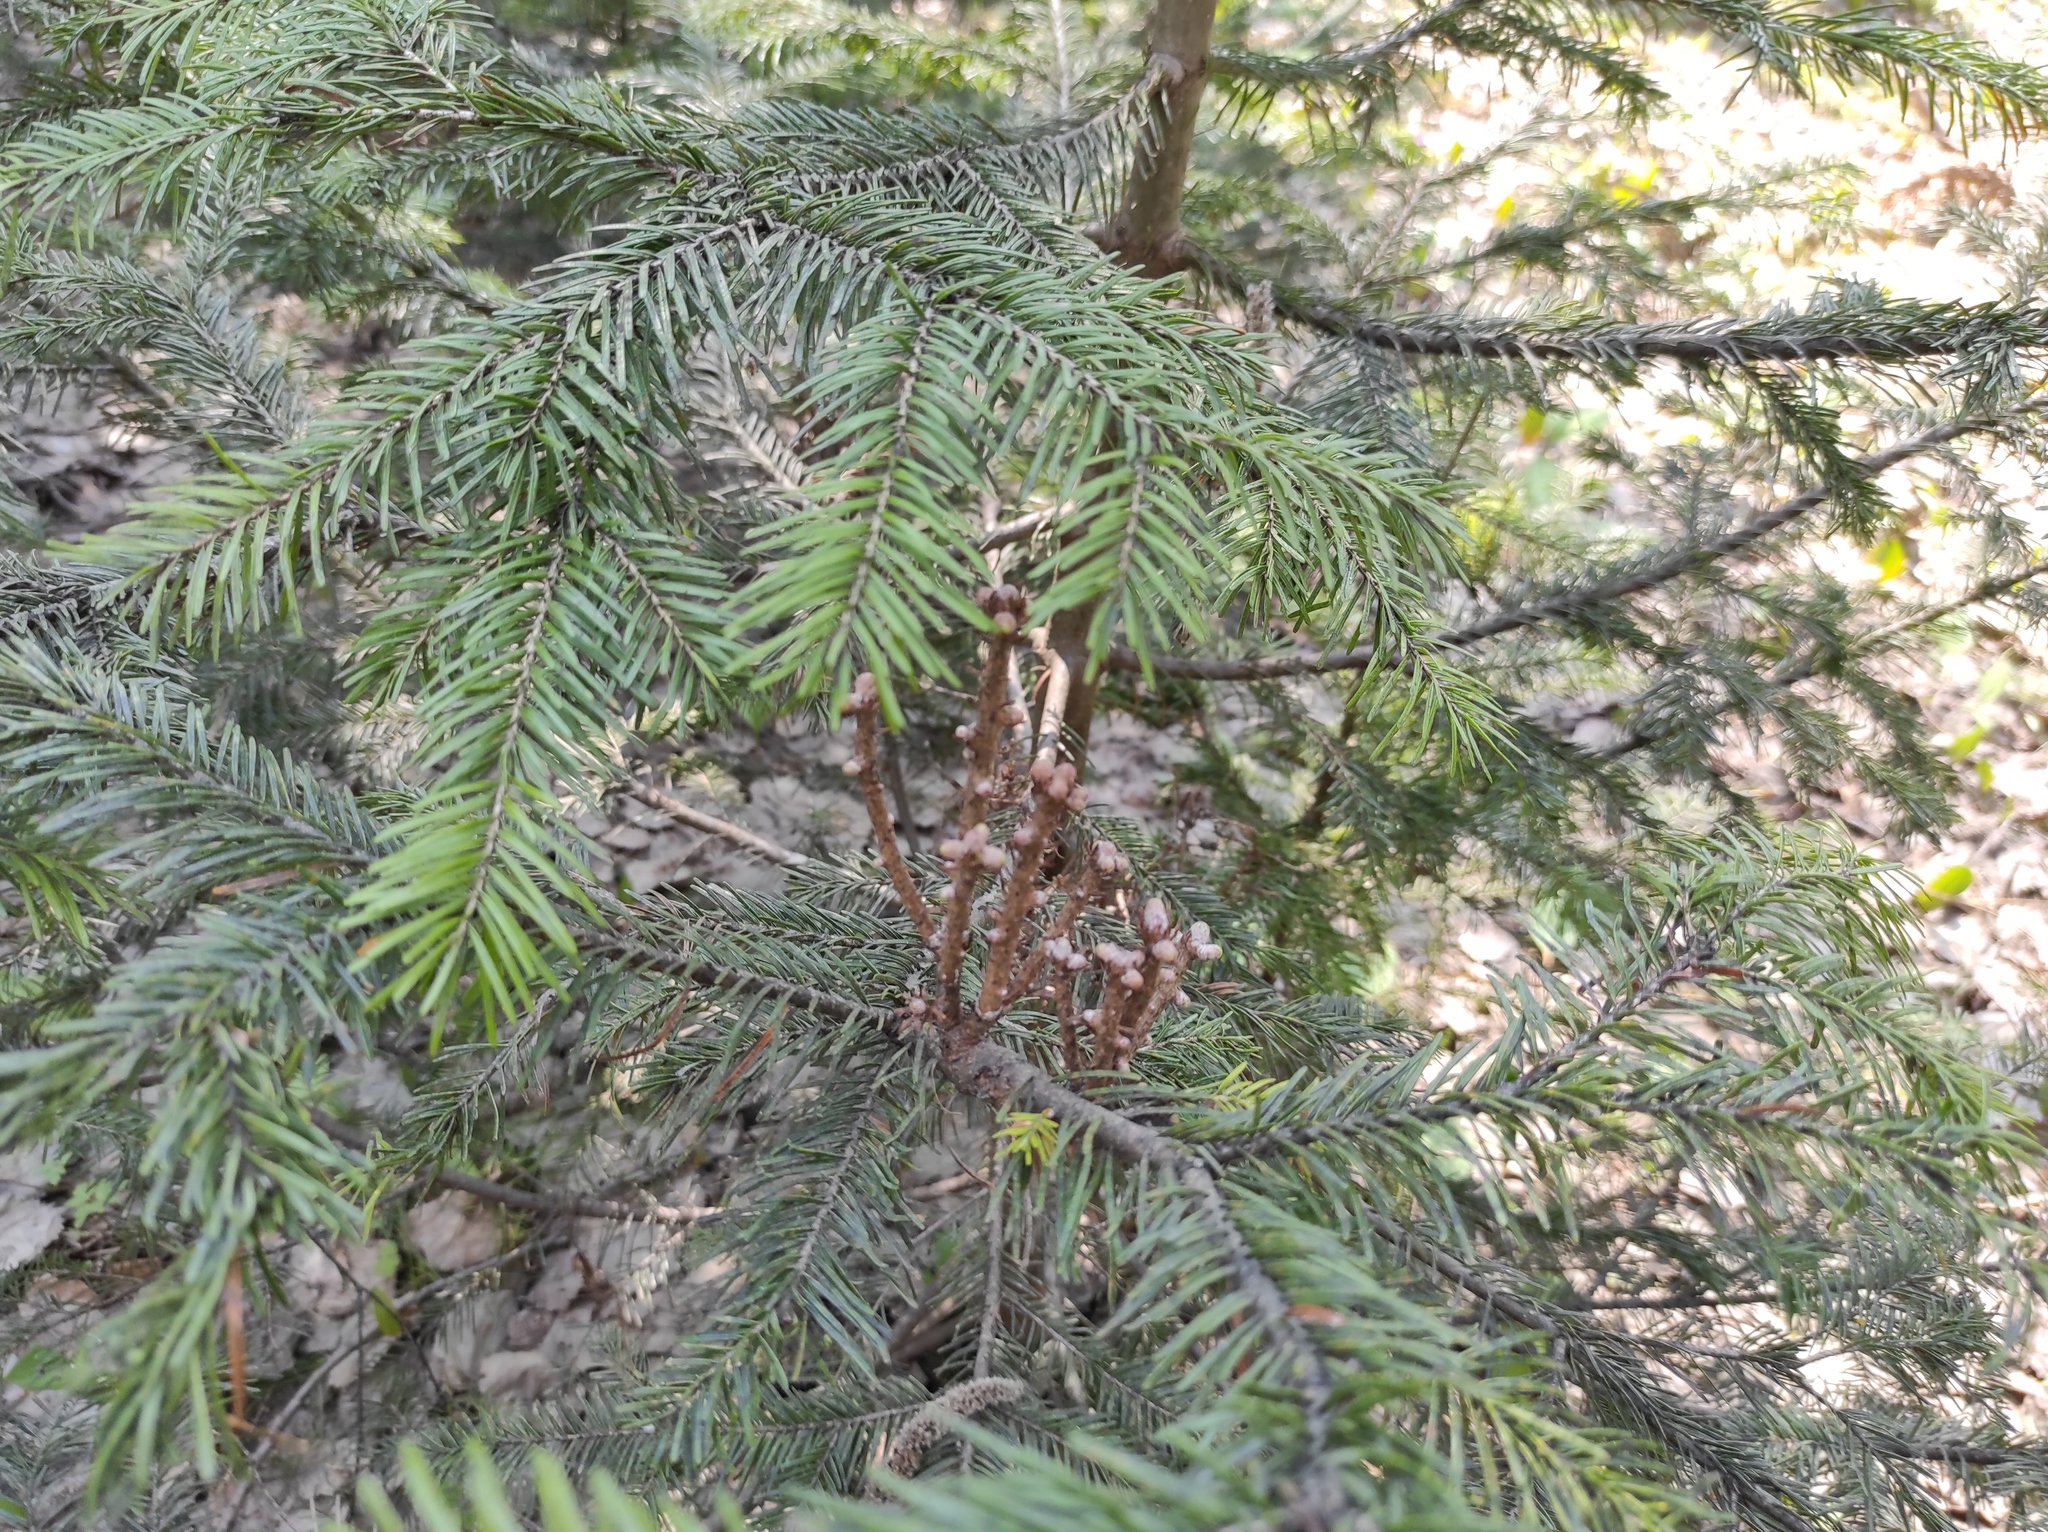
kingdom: Plantae
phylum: Tracheophyta
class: Pinopsida
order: Pinales
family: Pinaceae
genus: Abies
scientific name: Abies sibirica
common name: Siberian fir
